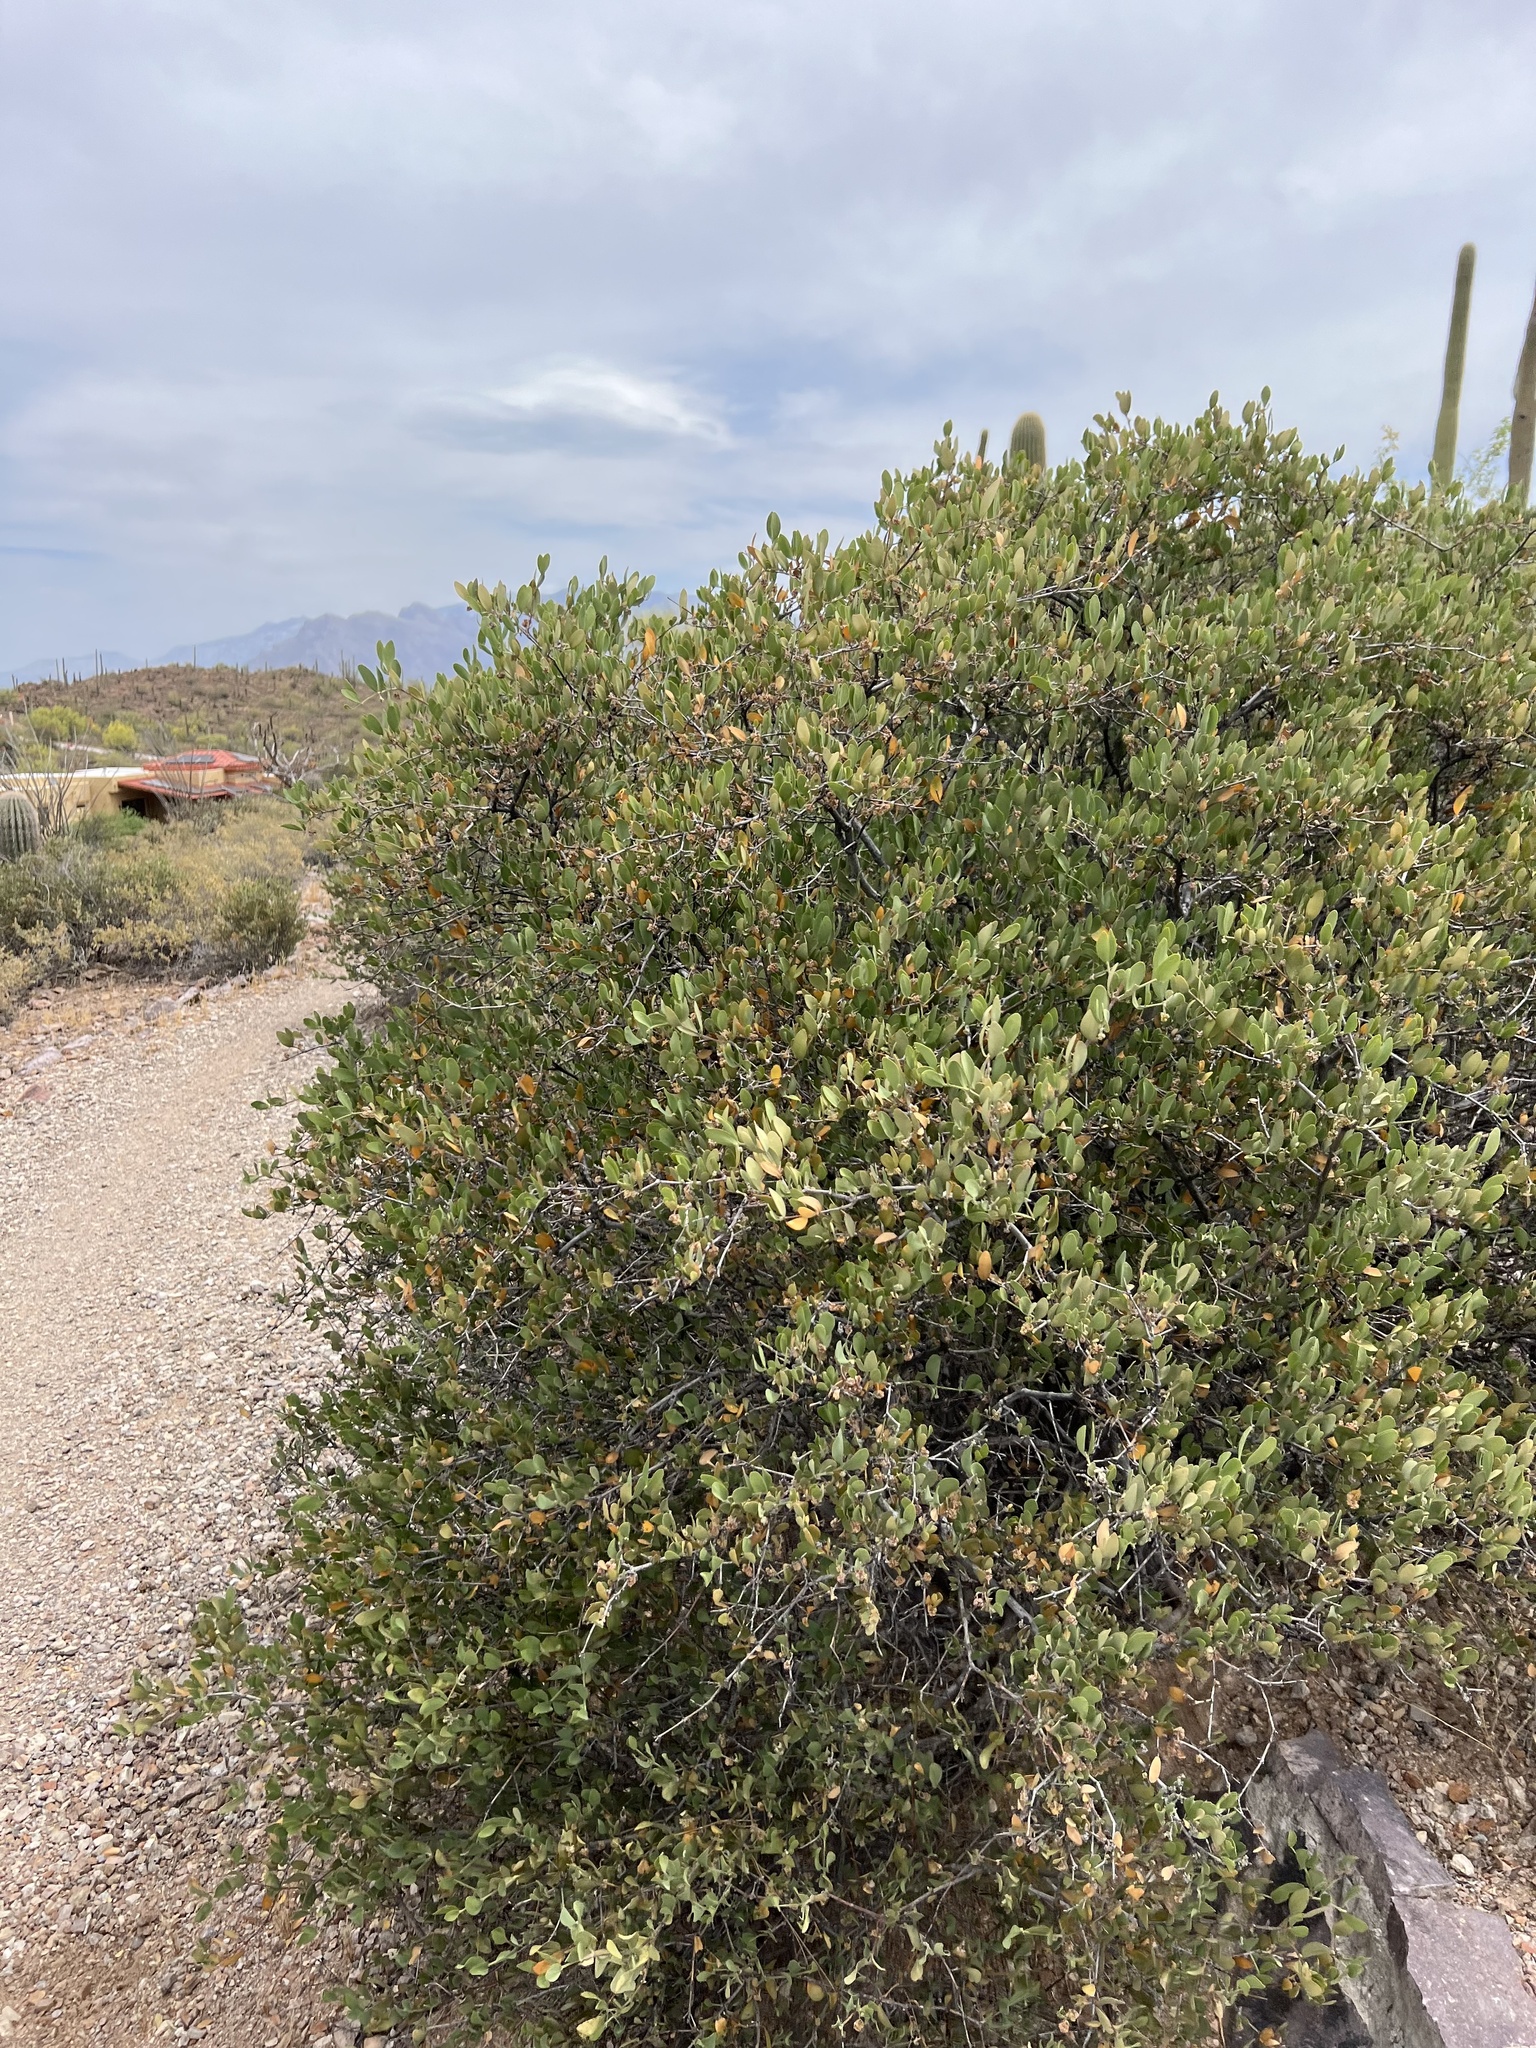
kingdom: Plantae
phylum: Tracheophyta
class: Magnoliopsida
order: Caryophyllales
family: Simmondsiaceae
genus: Simmondsia
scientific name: Simmondsia chinensis
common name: Jojoba
